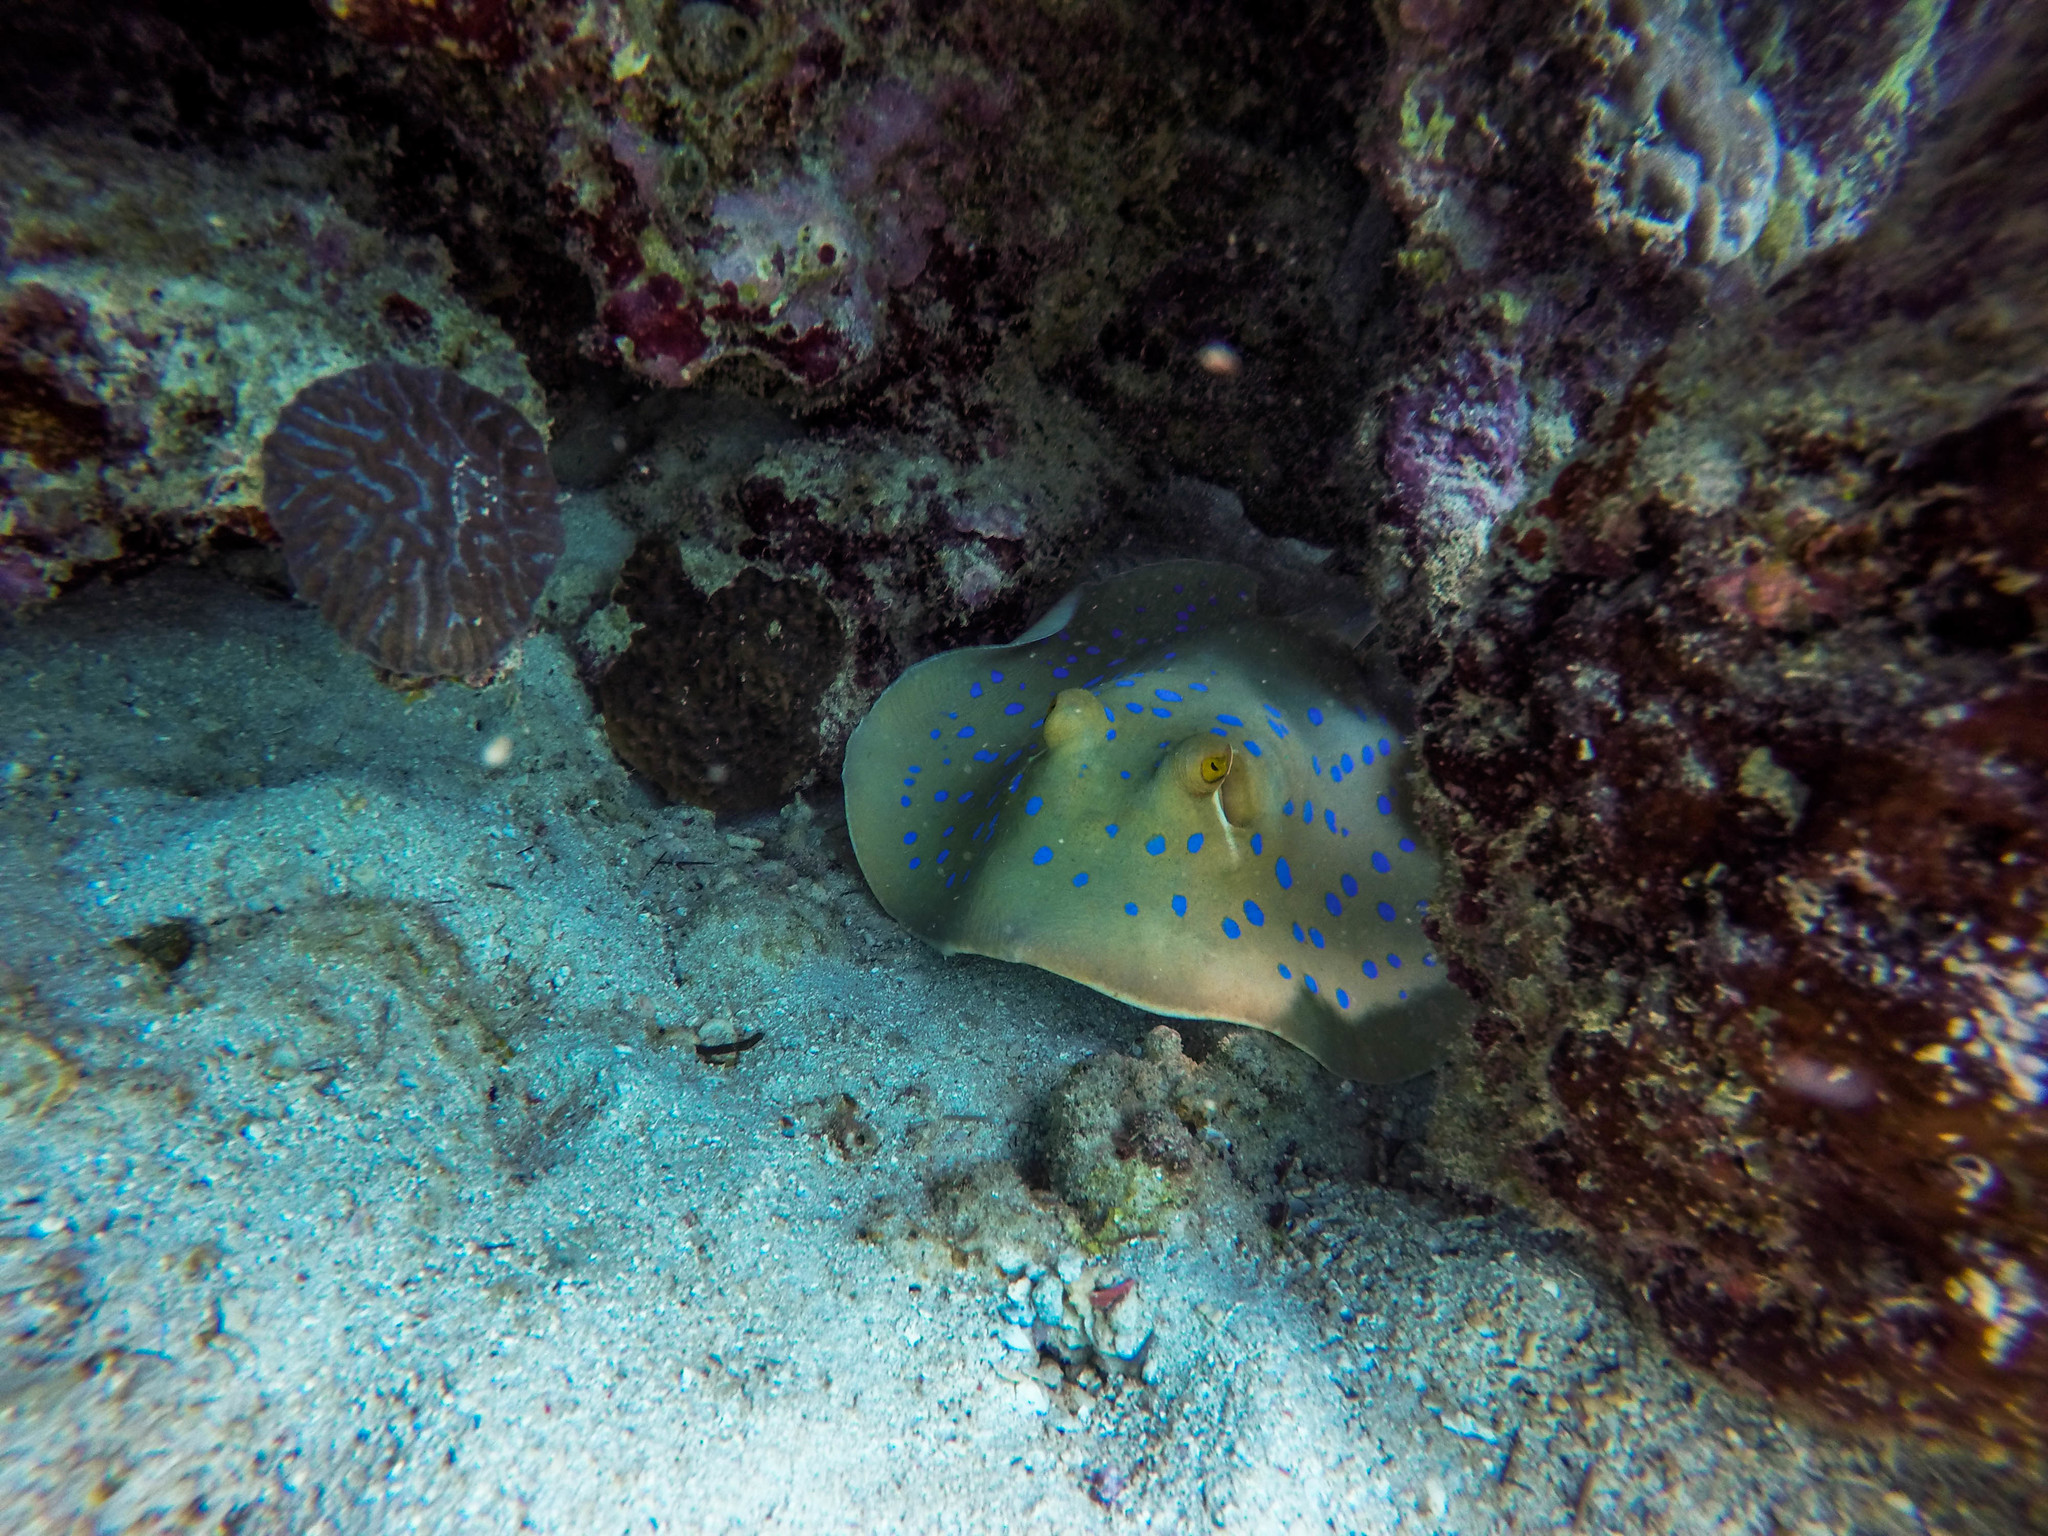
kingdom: Animalia
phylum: Chordata
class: Elasmobranchii
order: Myliobatiformes
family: Dasyatidae
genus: Taeniura
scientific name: Taeniura lymma
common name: Bluespotted ribbontail ray
